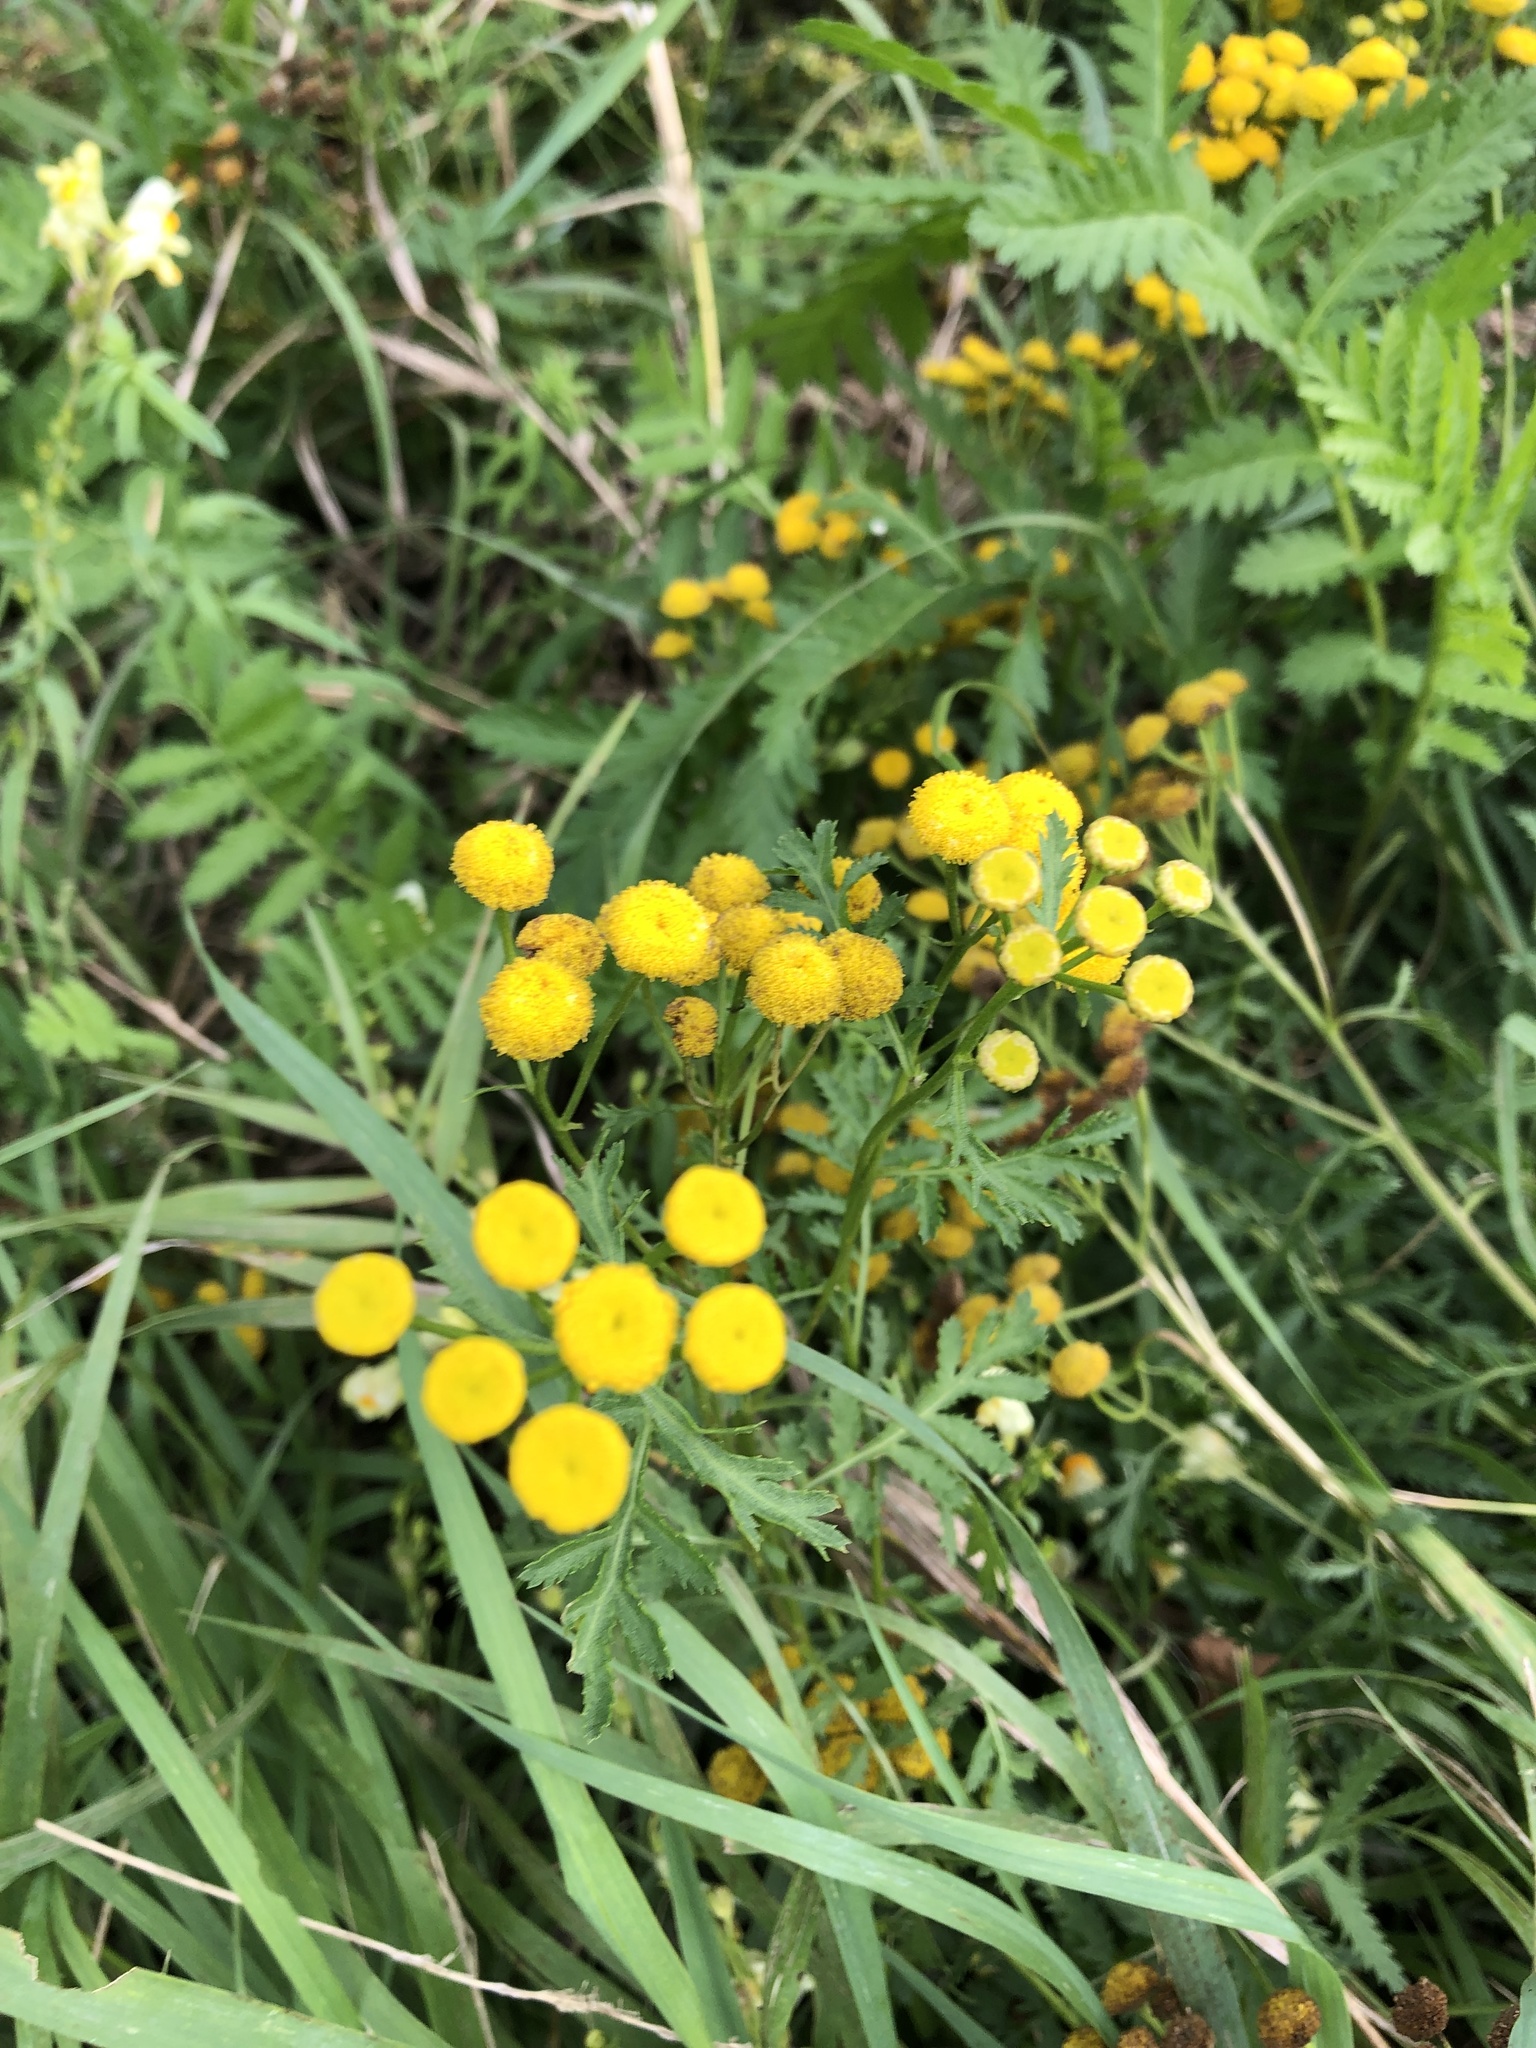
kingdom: Plantae
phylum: Tracheophyta
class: Magnoliopsida
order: Asterales
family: Asteraceae
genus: Tanacetum
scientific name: Tanacetum vulgare
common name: Common tansy
